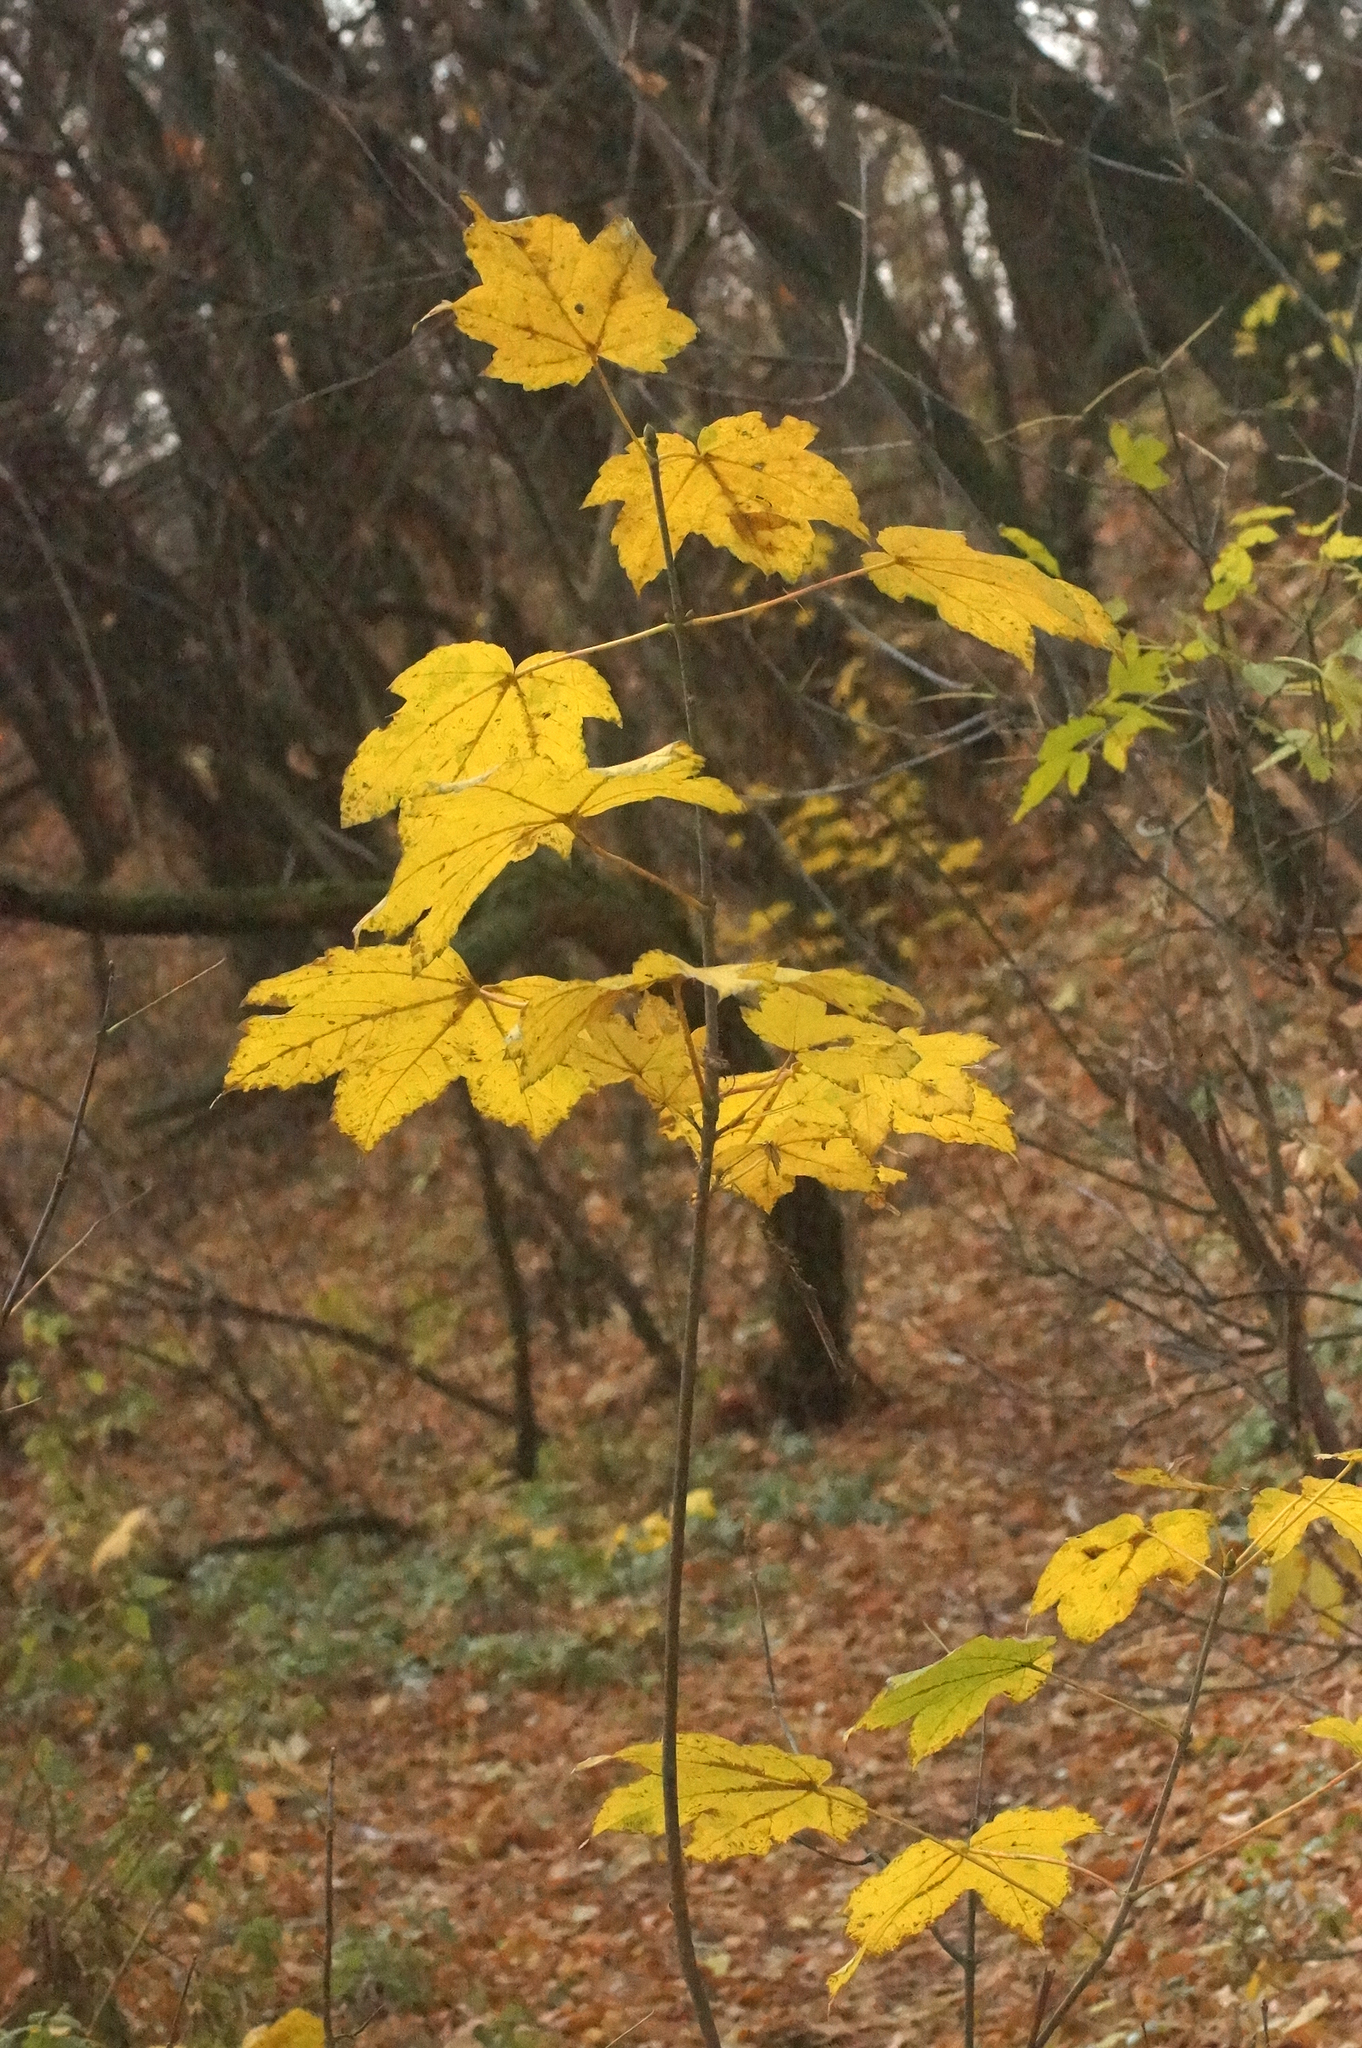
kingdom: Plantae
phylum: Tracheophyta
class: Magnoliopsida
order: Sapindales
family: Sapindaceae
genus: Acer
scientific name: Acer pseudoplatanus
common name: Sycamore
